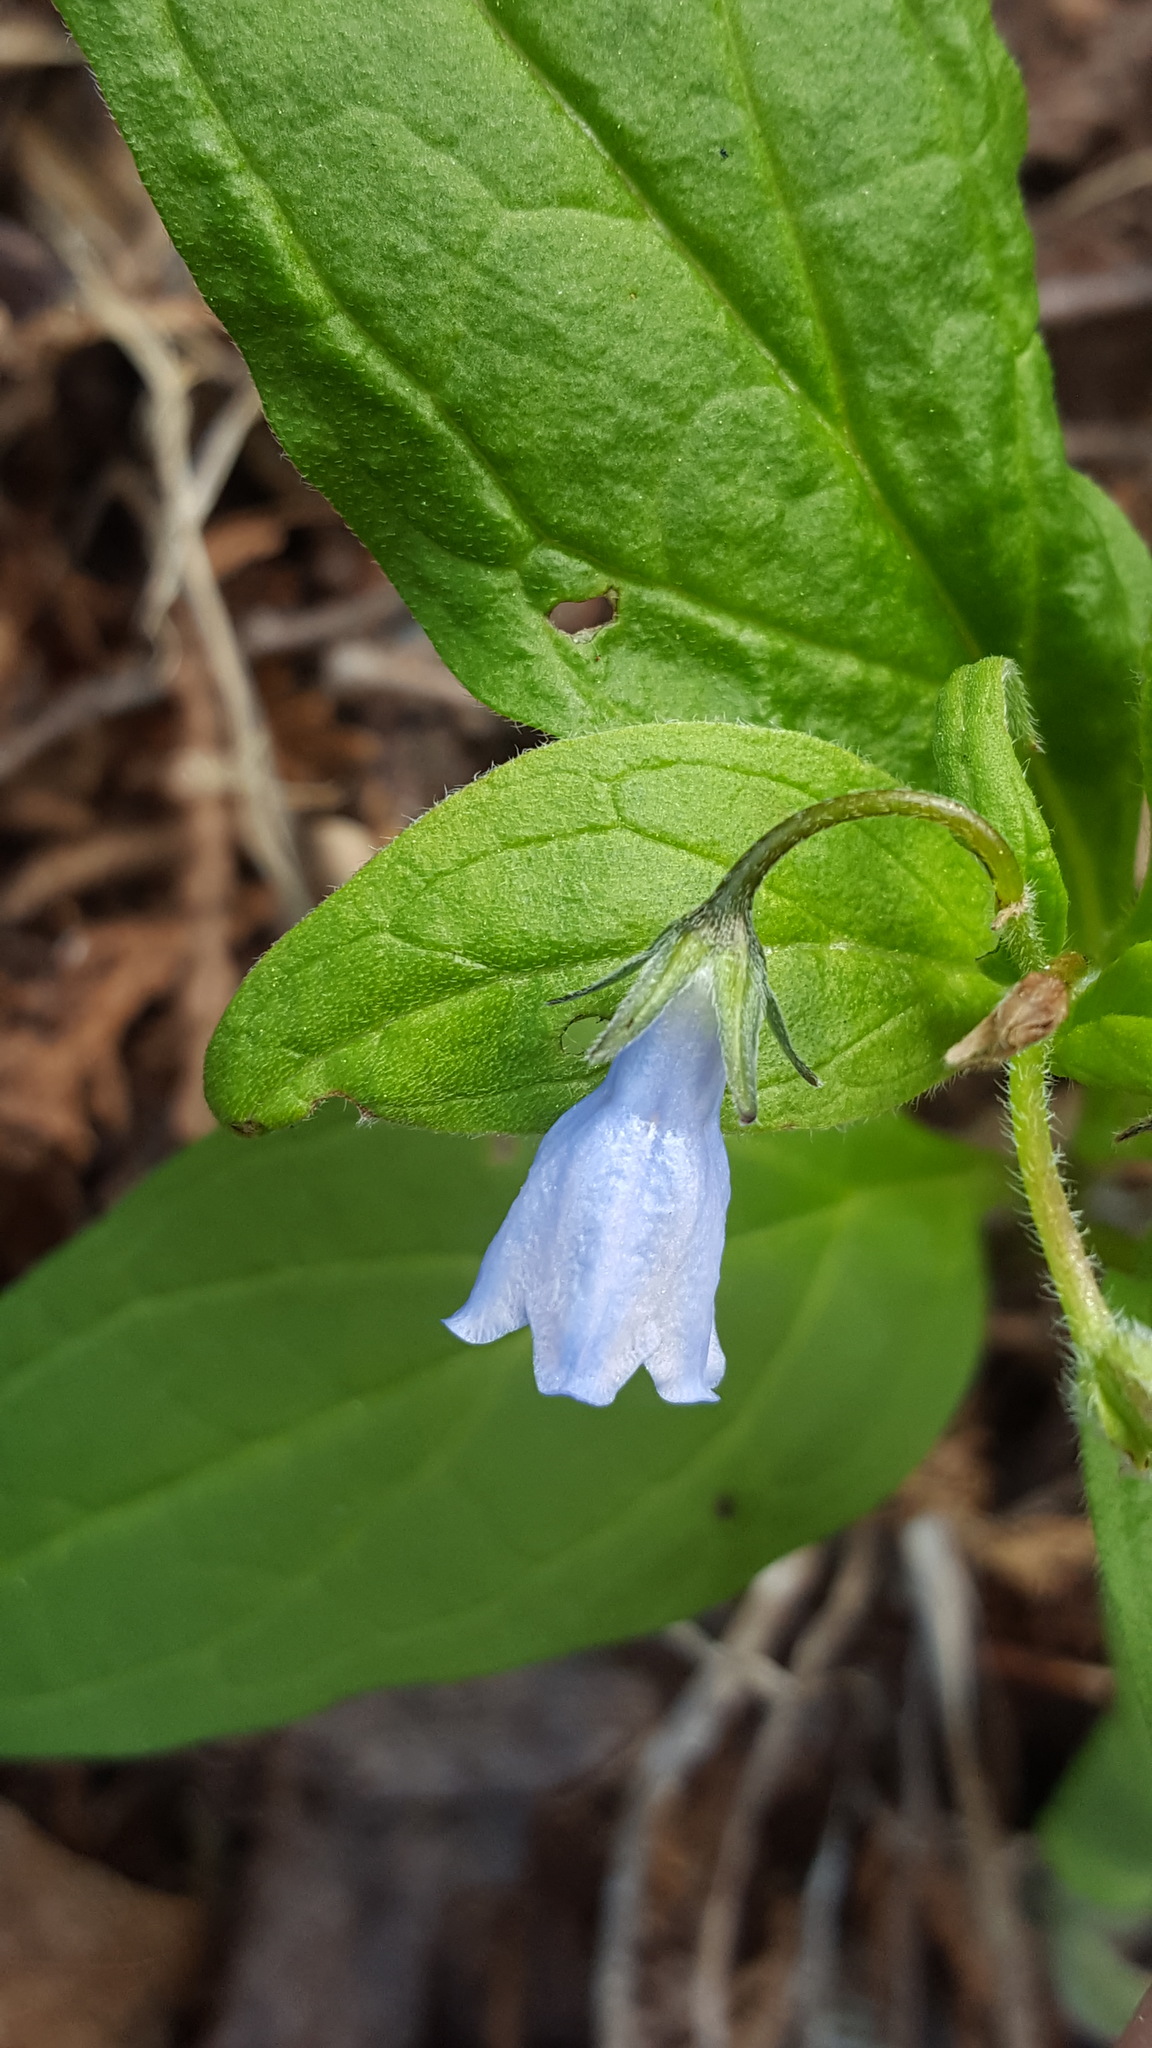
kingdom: Plantae
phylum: Tracheophyta
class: Magnoliopsida
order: Boraginales
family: Boraginaceae
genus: Mertensia
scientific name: Mertensia paniculata
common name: Panicled bluebells
